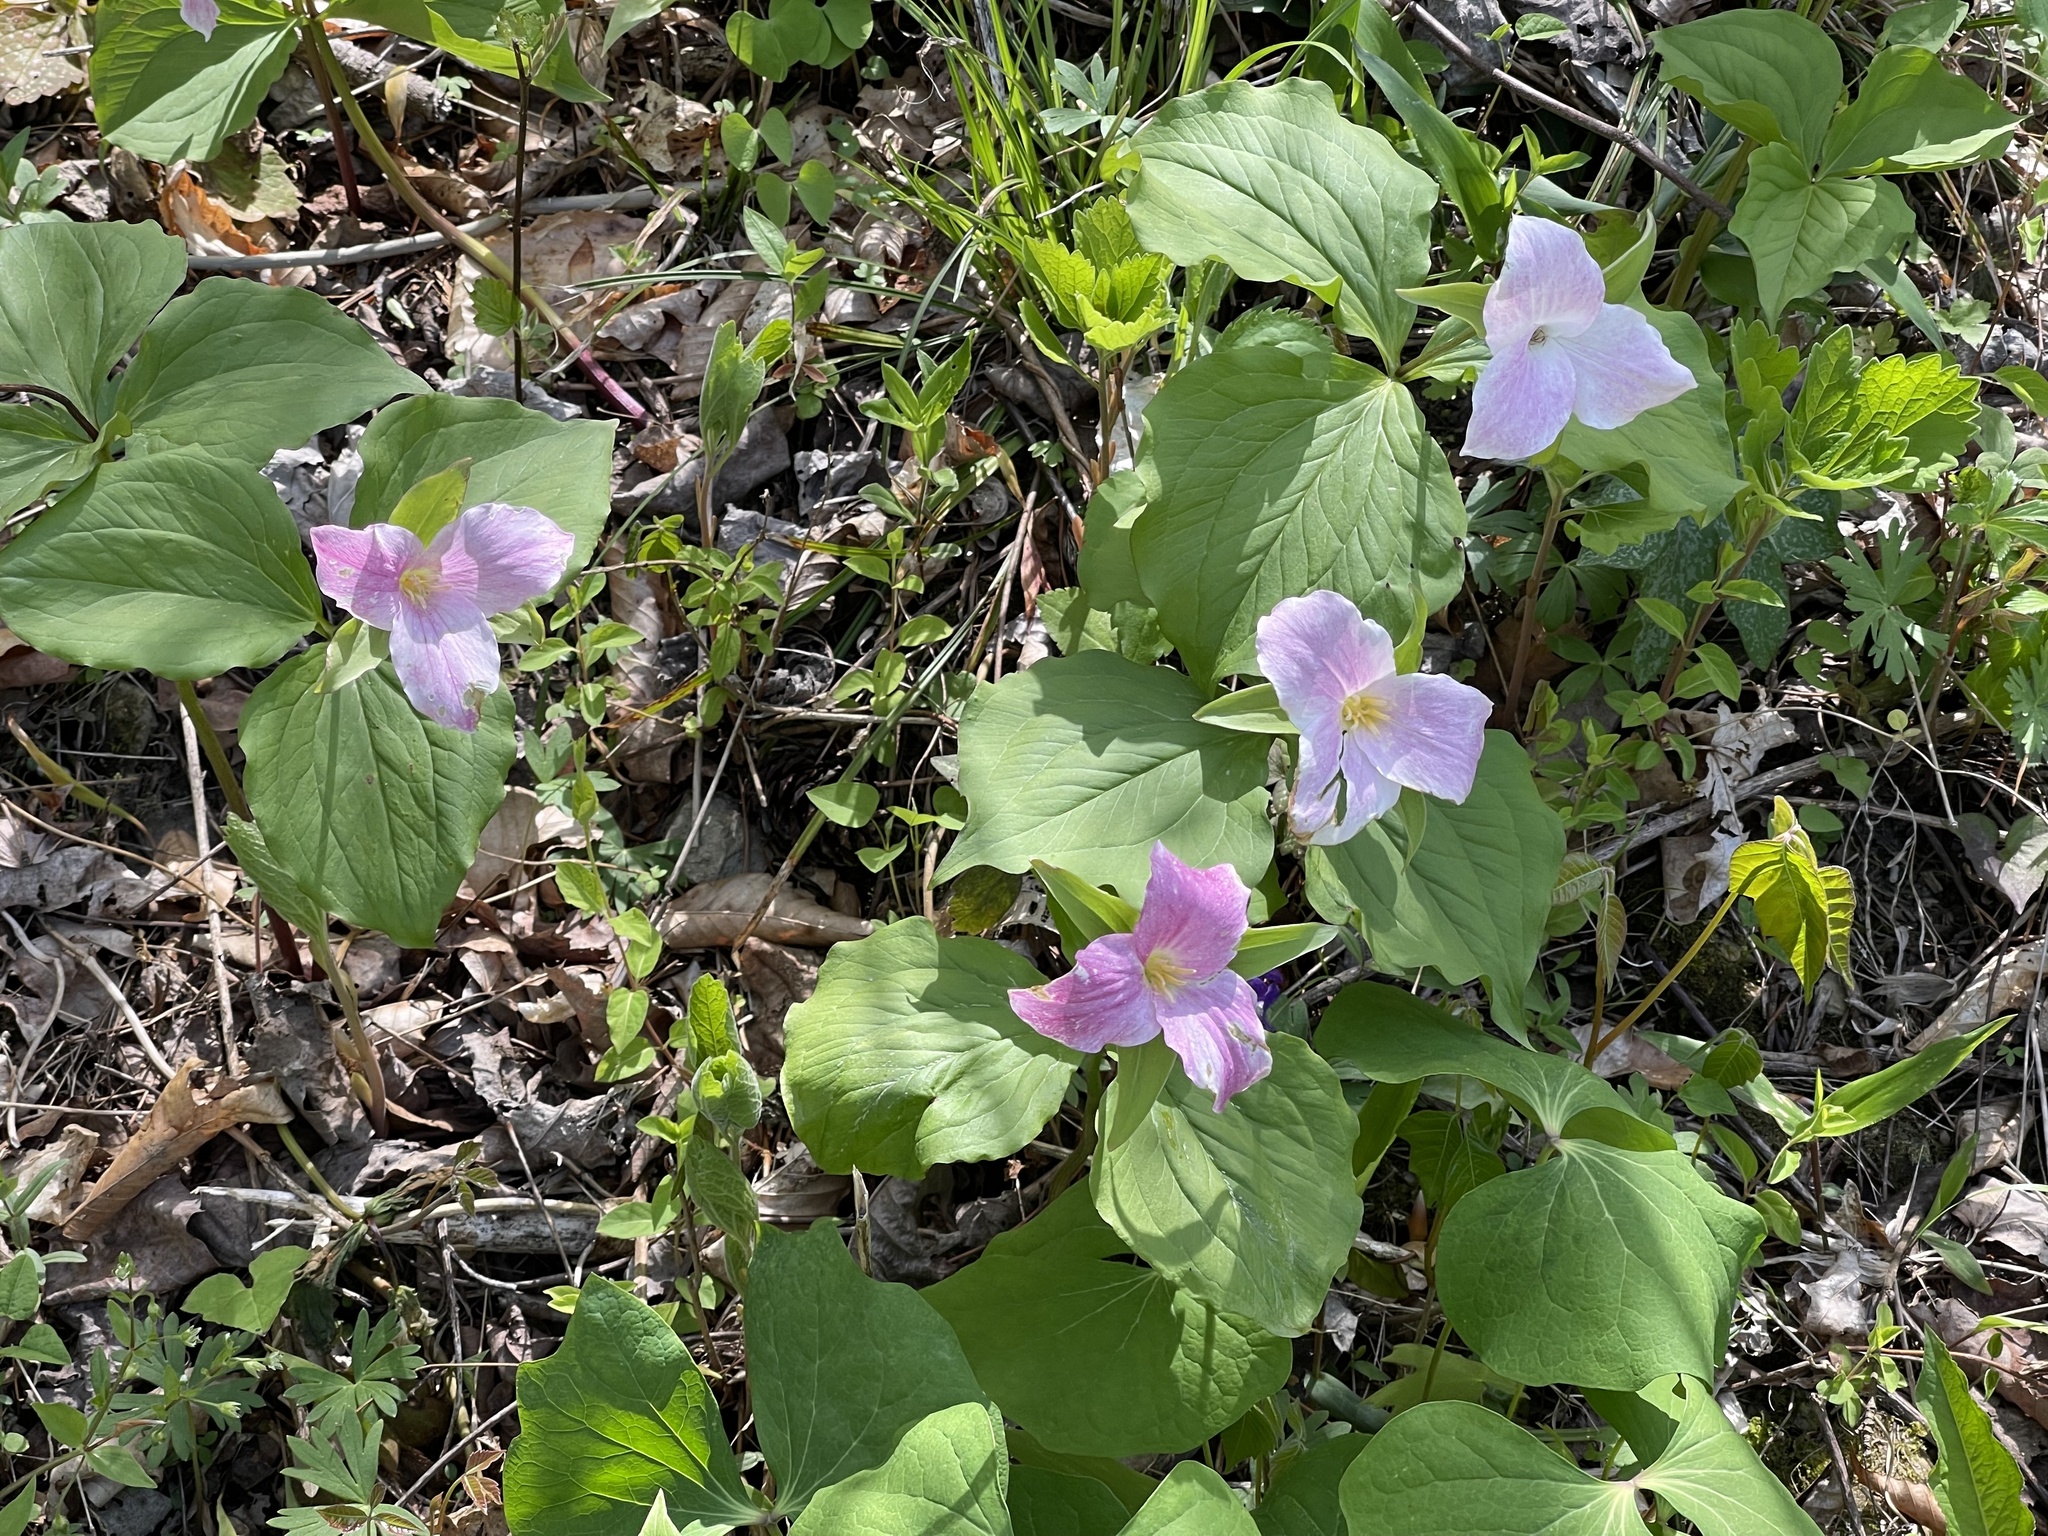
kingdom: Plantae
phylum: Tracheophyta
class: Liliopsida
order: Liliales
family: Melanthiaceae
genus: Trillium
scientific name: Trillium grandiflorum
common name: Great white trillium
